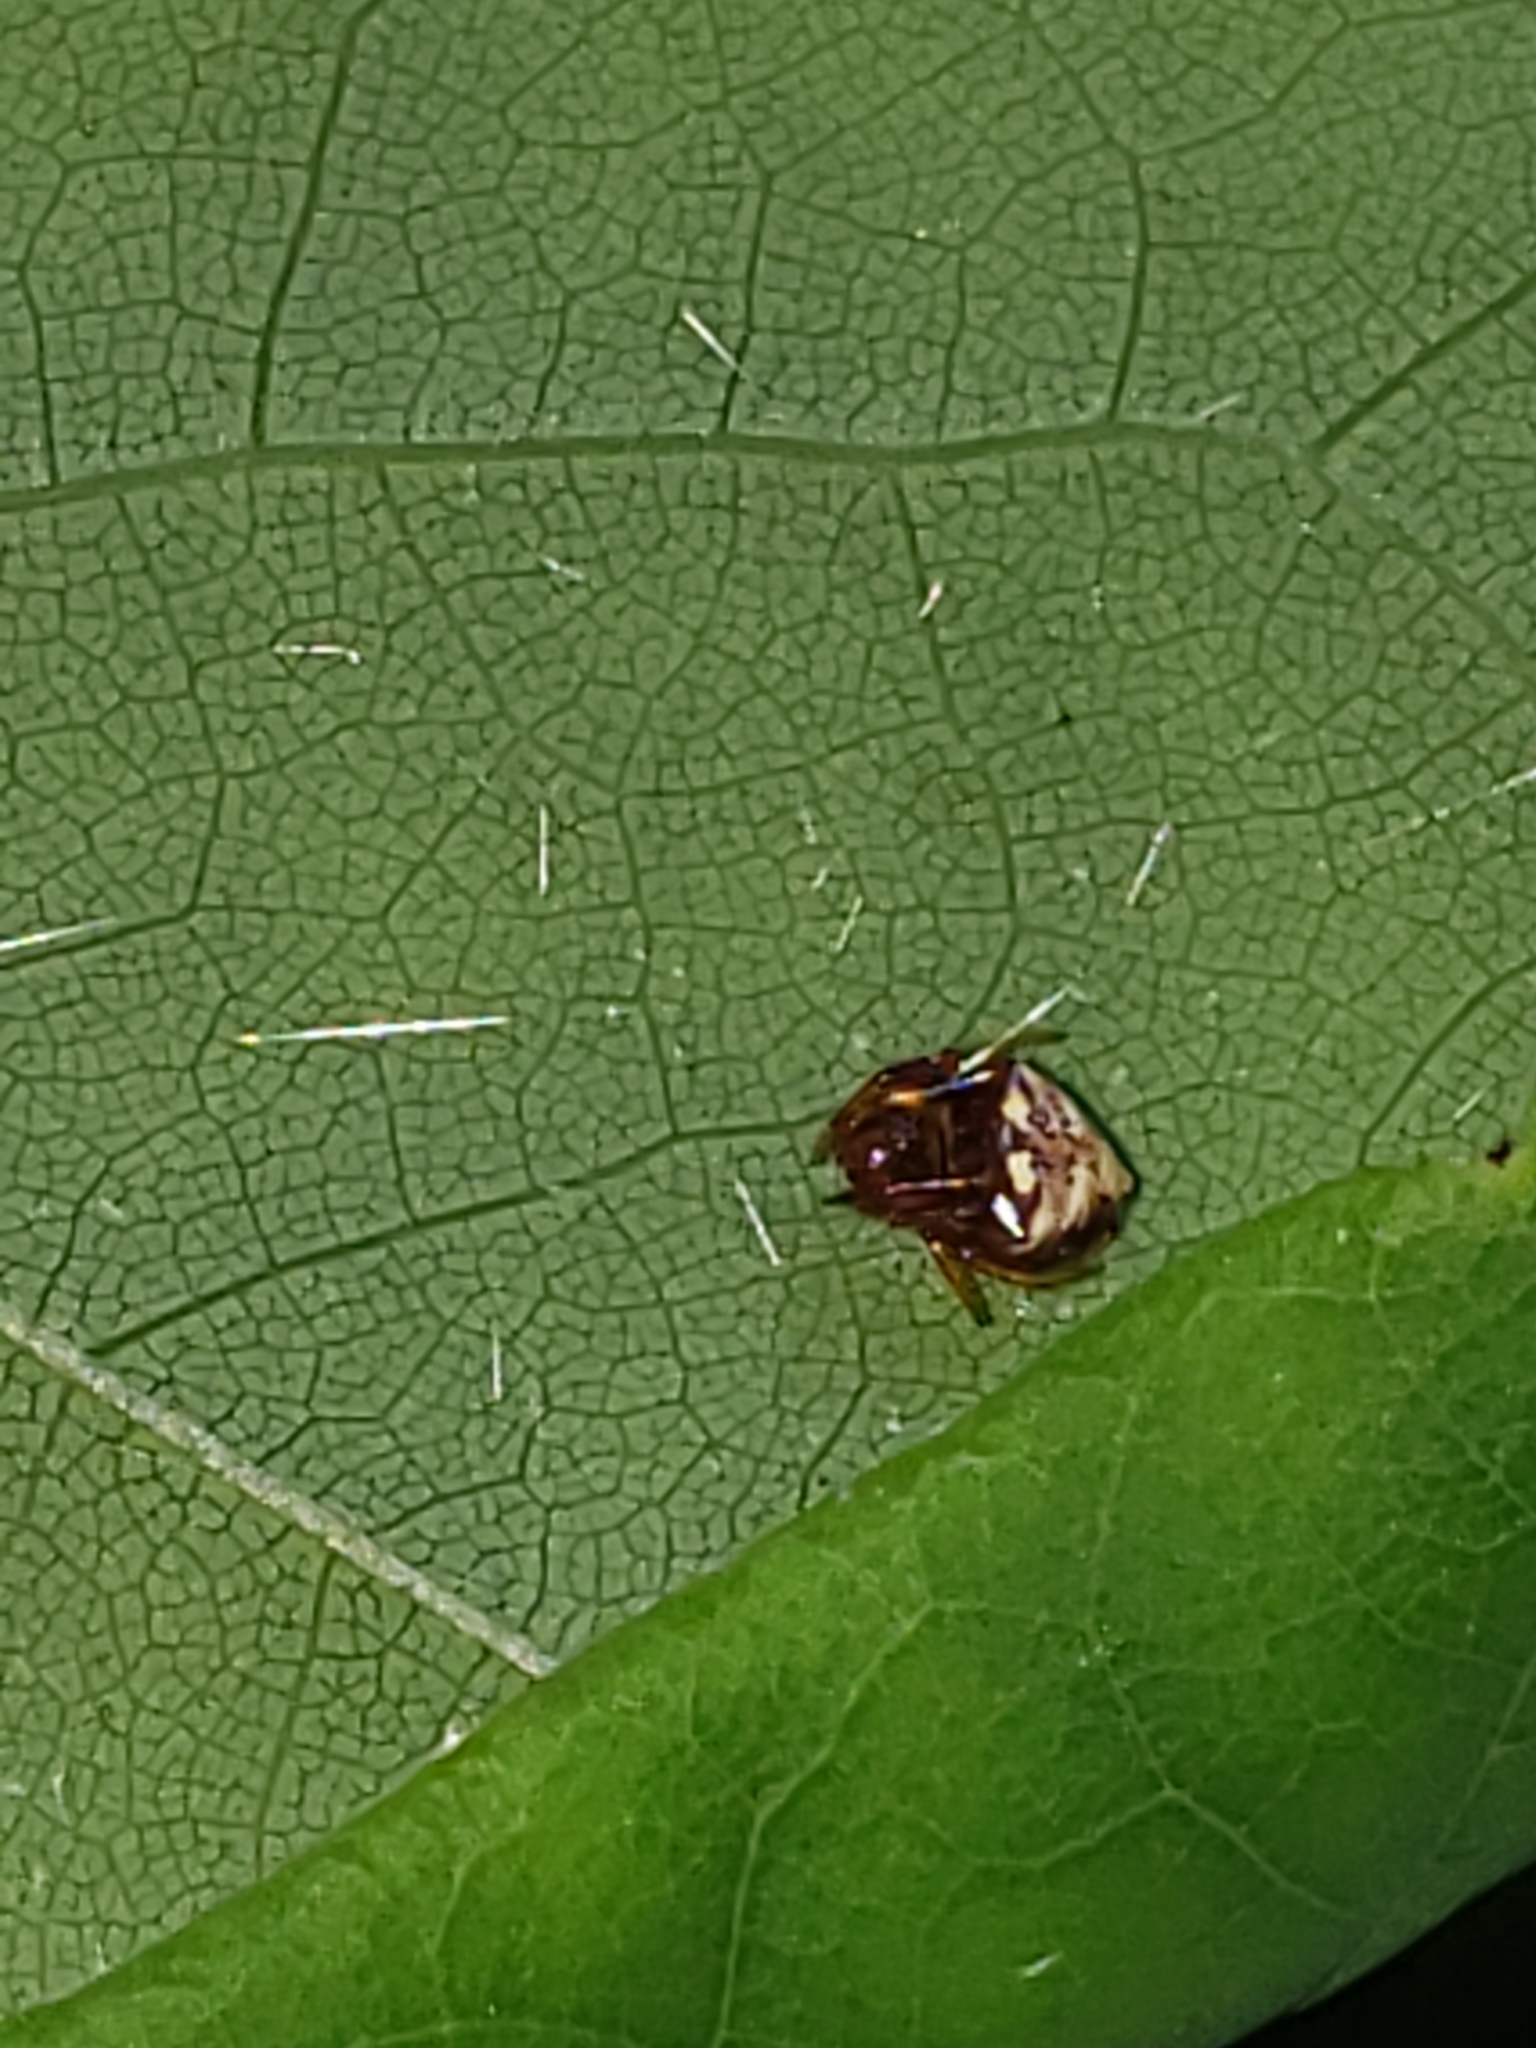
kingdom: Animalia
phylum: Arthropoda
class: Arachnida
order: Araneae
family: Araneidae
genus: Verrucosa
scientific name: Verrucosa arenata
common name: Orb weavers
